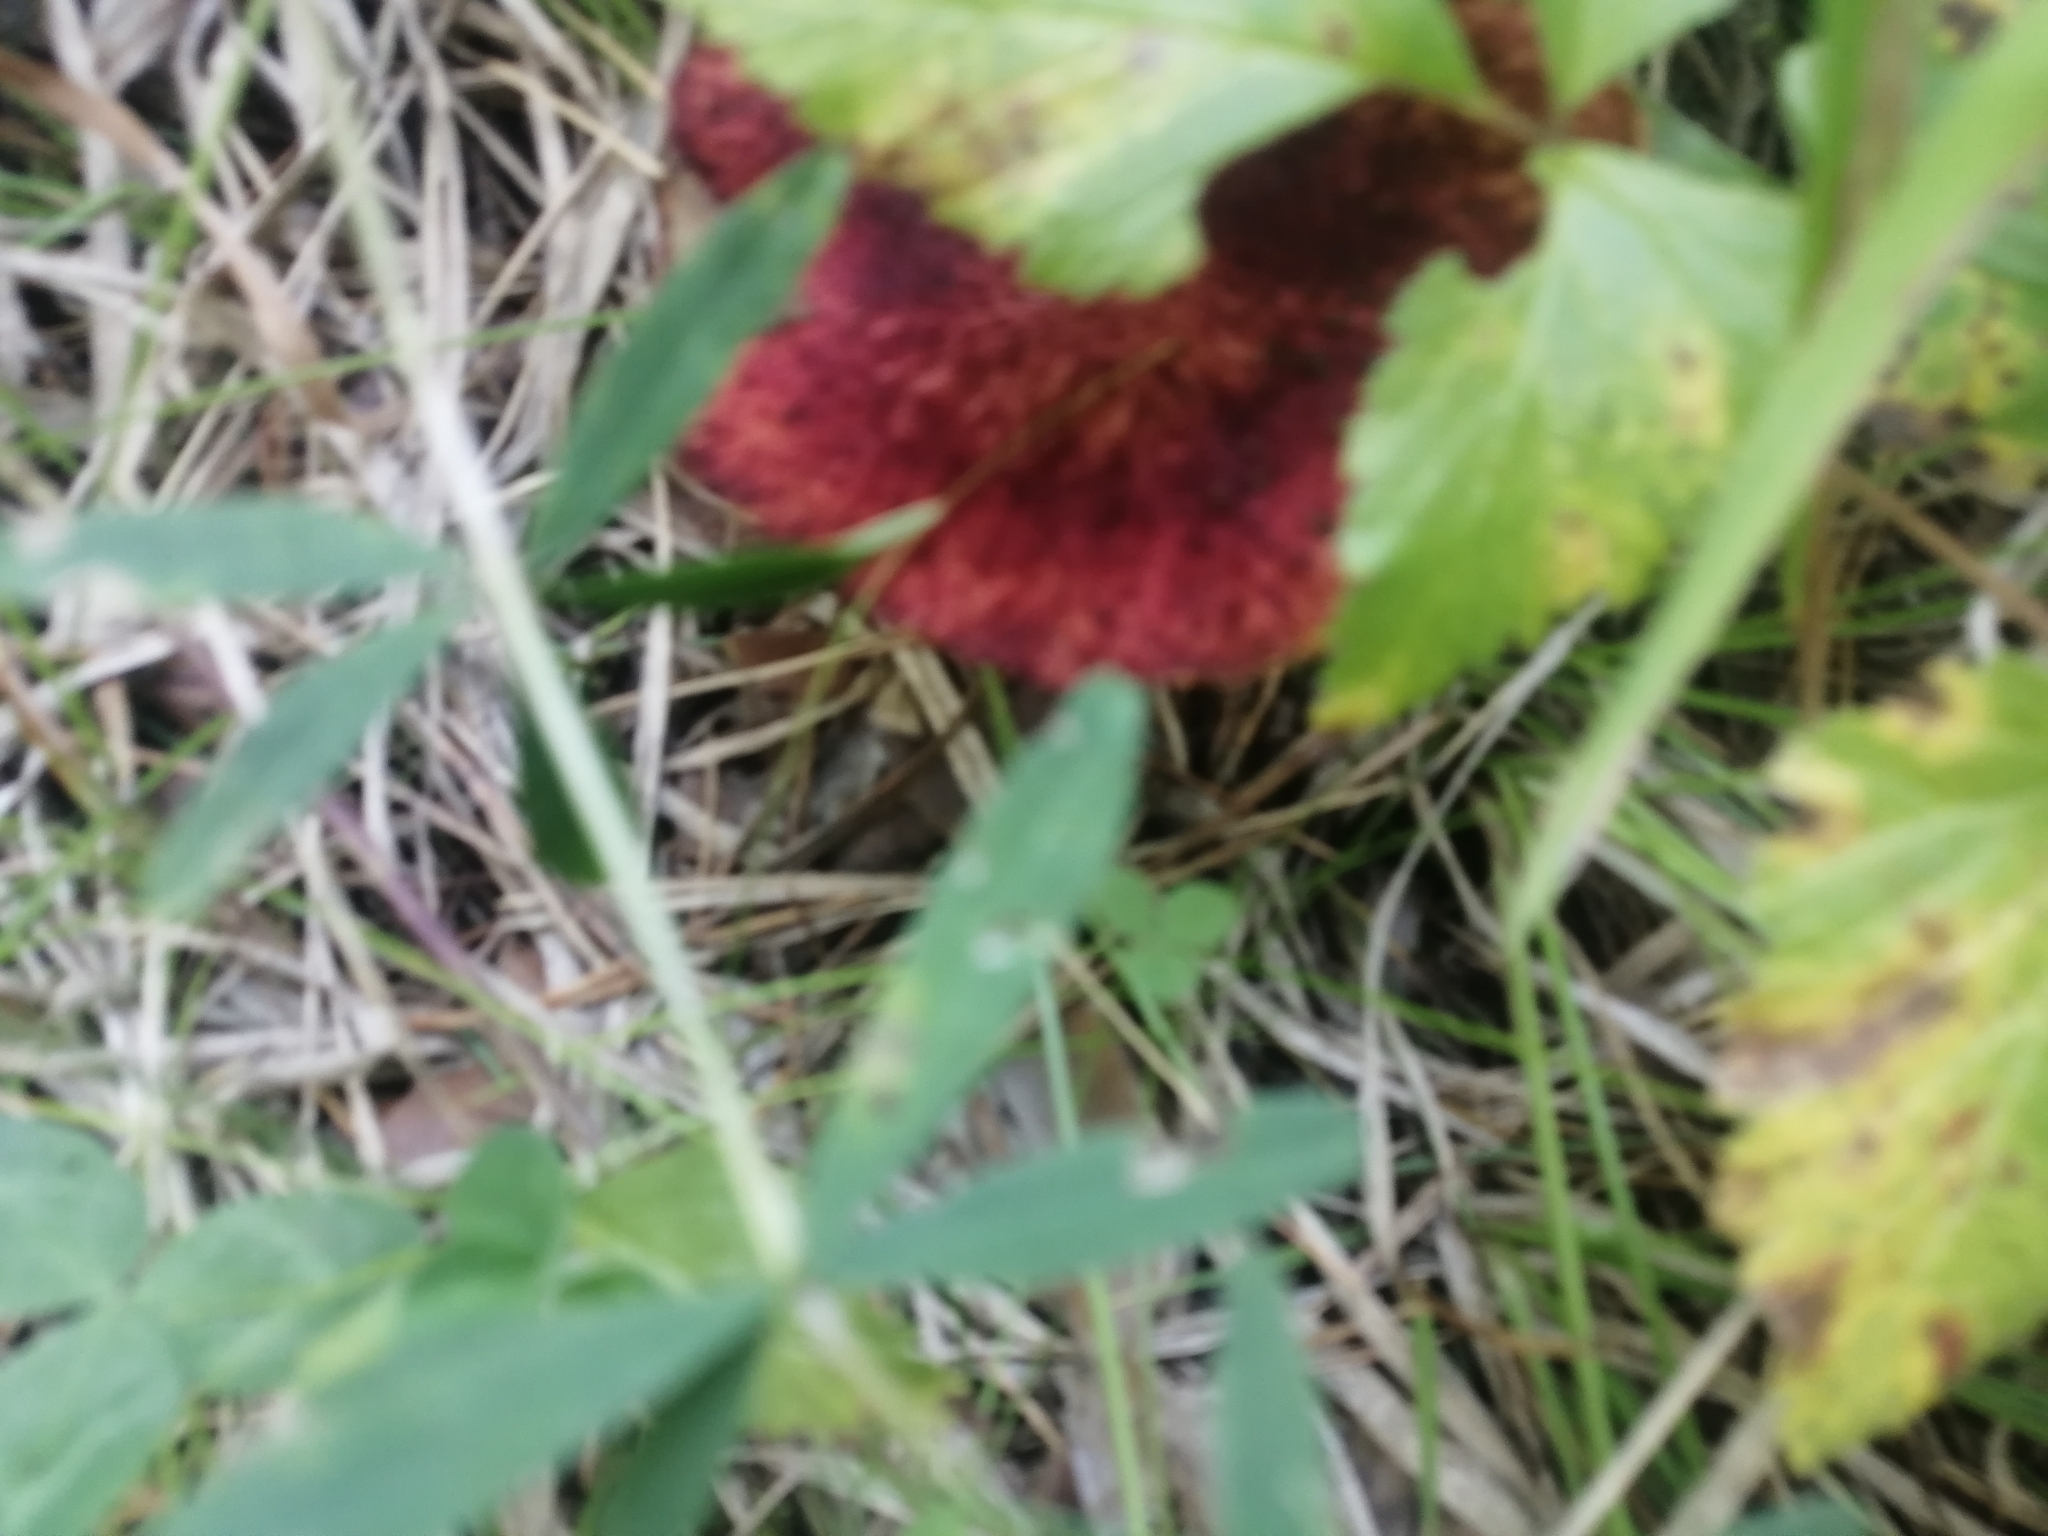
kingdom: Fungi
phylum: Basidiomycota
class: Agaricomycetes
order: Boletales
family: Suillaceae
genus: Boletinus
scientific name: Boletinus asiaticus
